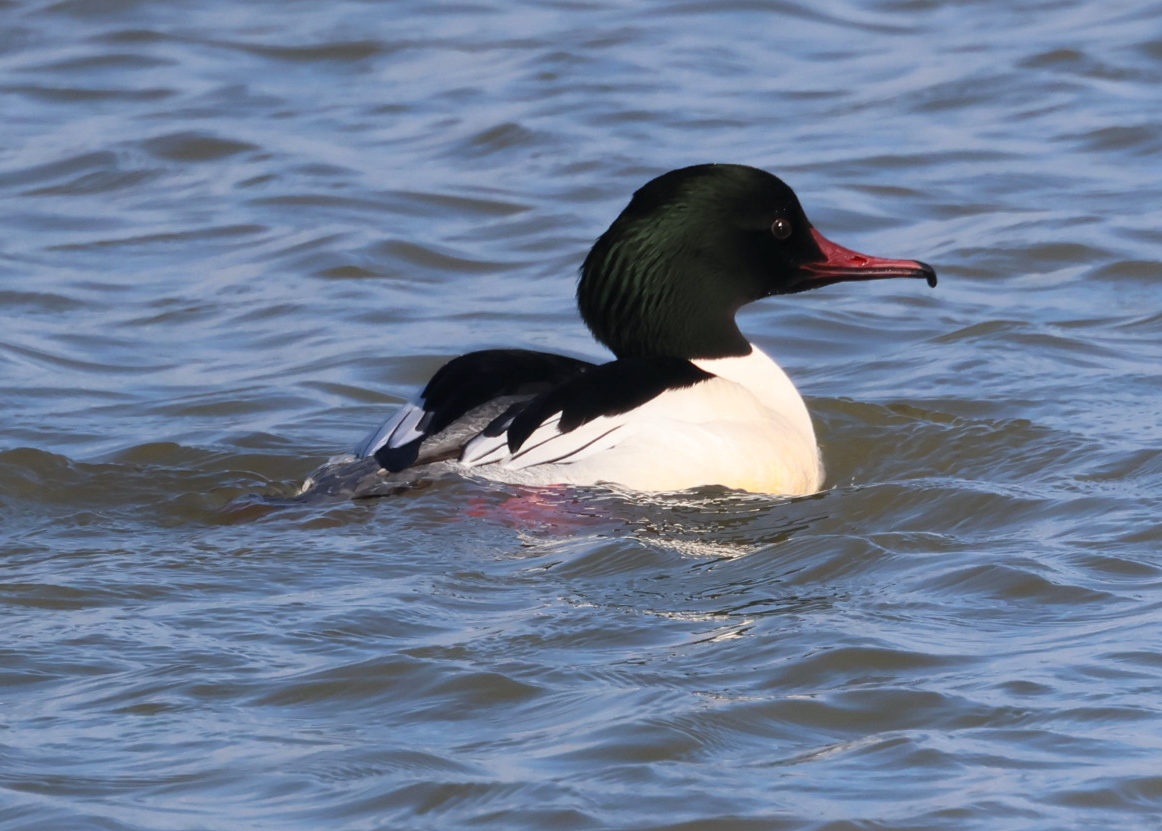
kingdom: Animalia
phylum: Chordata
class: Aves
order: Anseriformes
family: Anatidae
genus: Mergus
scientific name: Mergus merganser
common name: Common merganser
